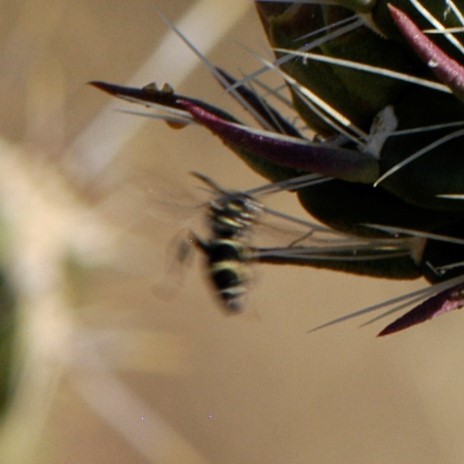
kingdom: Animalia
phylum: Arthropoda
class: Insecta
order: Hymenoptera
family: Vespidae
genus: Ancistrocerus
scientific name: Ancistrocerus
